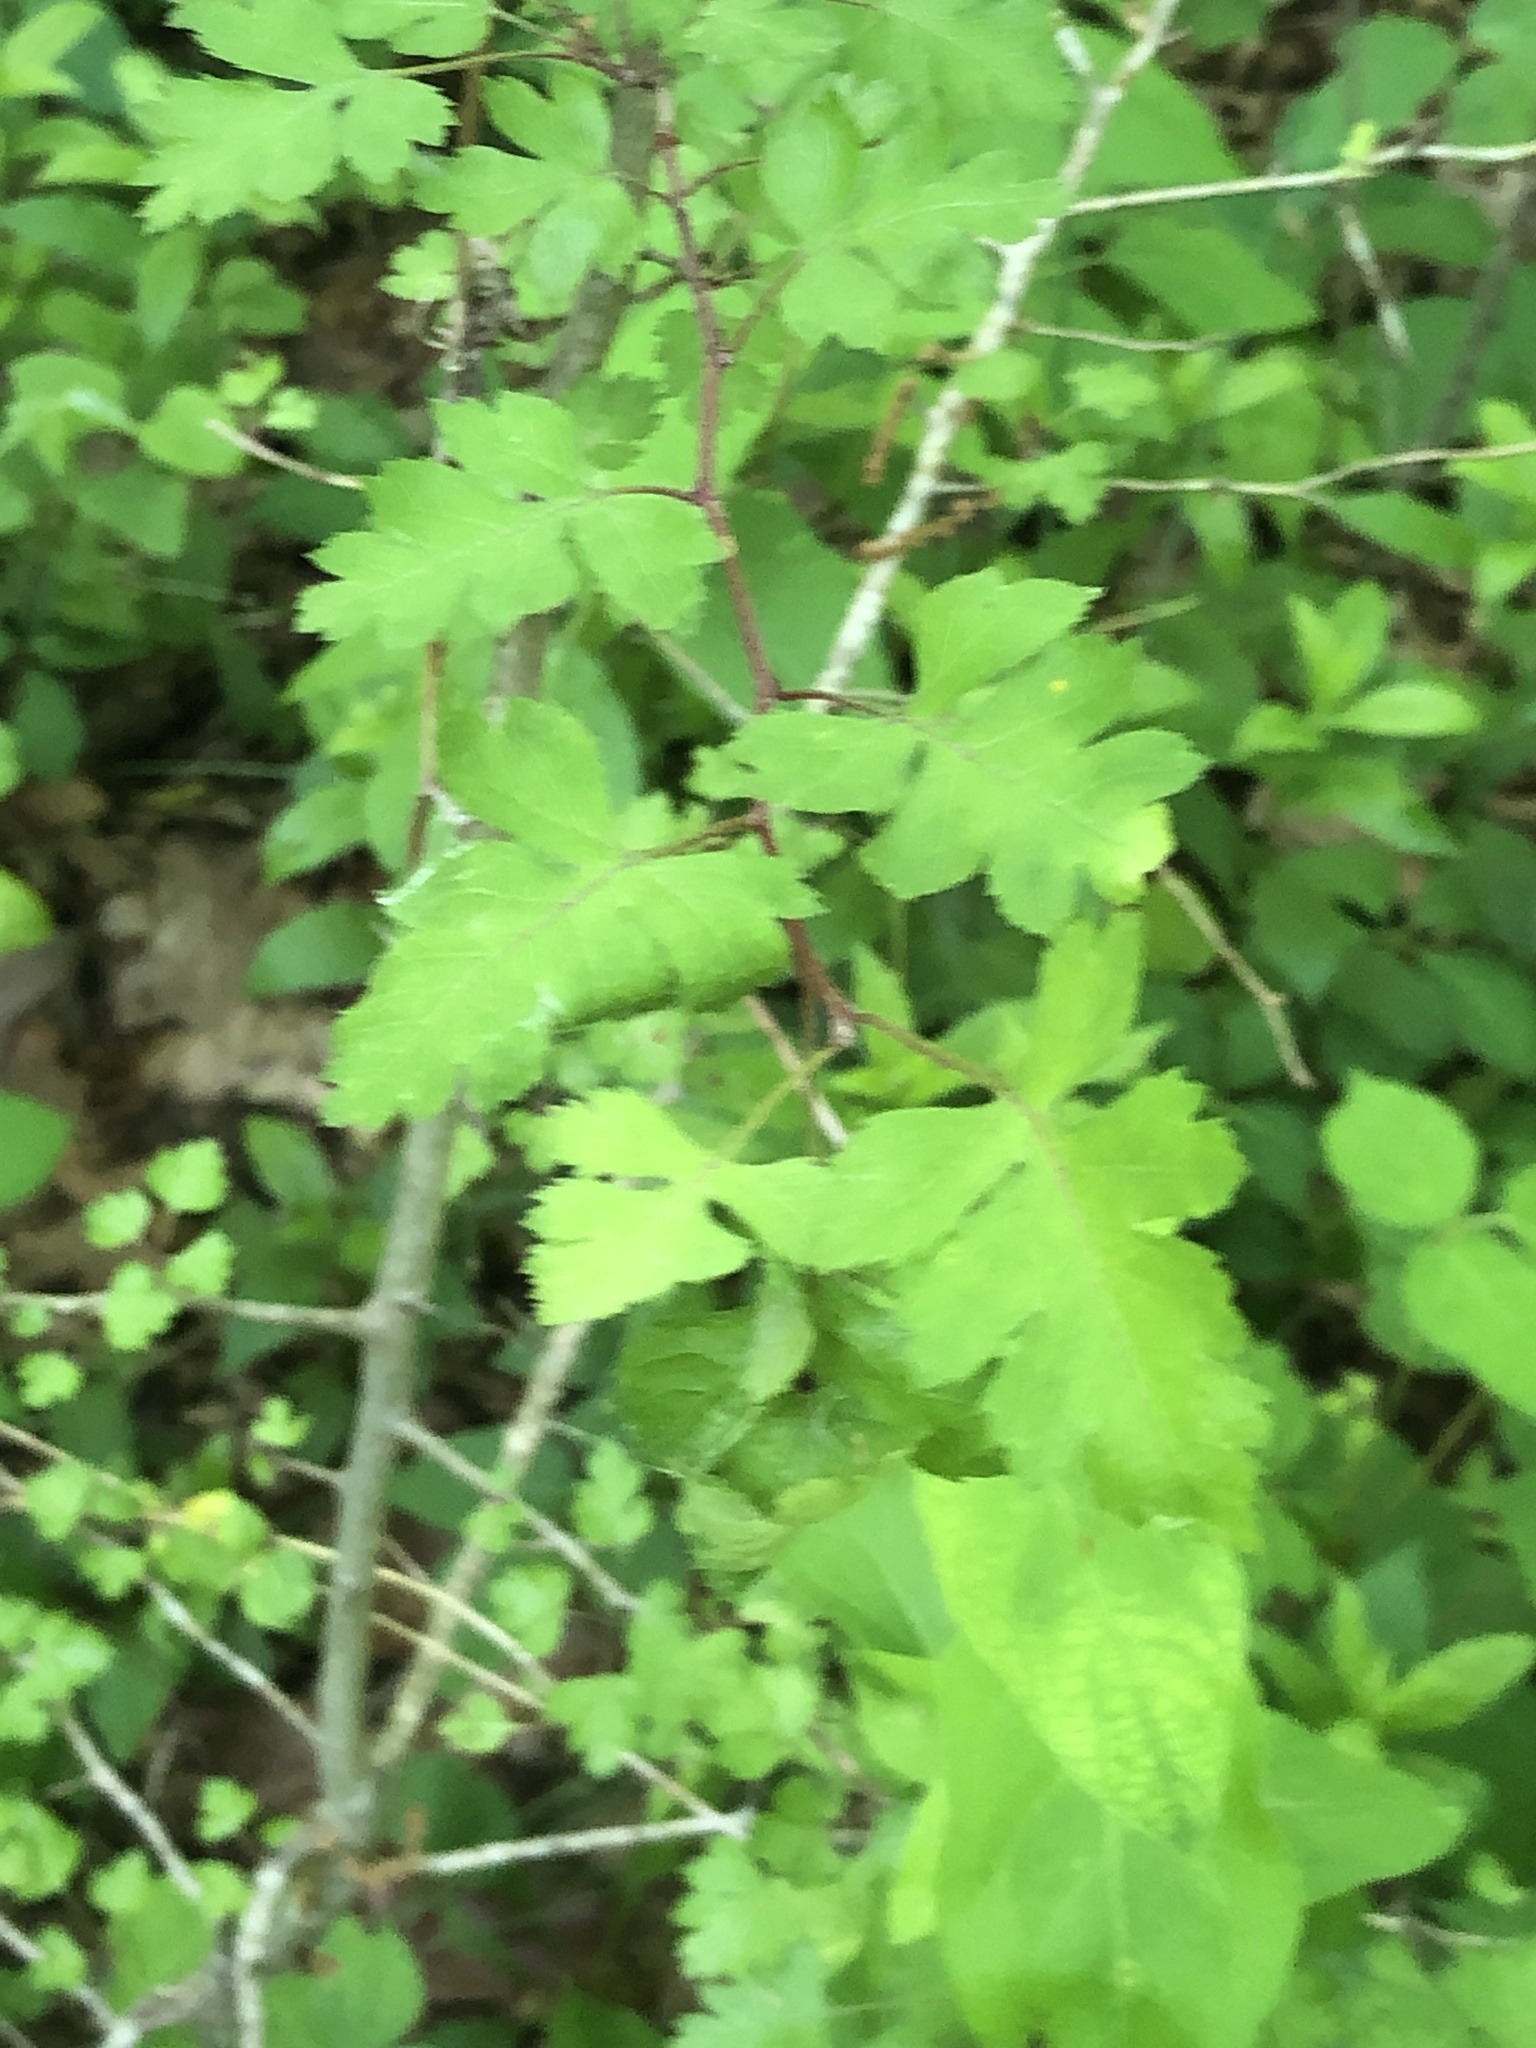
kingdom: Plantae
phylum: Tracheophyta
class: Magnoliopsida
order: Rosales
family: Rosaceae
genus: Crataegus
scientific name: Crataegus marshallii
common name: Parsley-hawthorn
